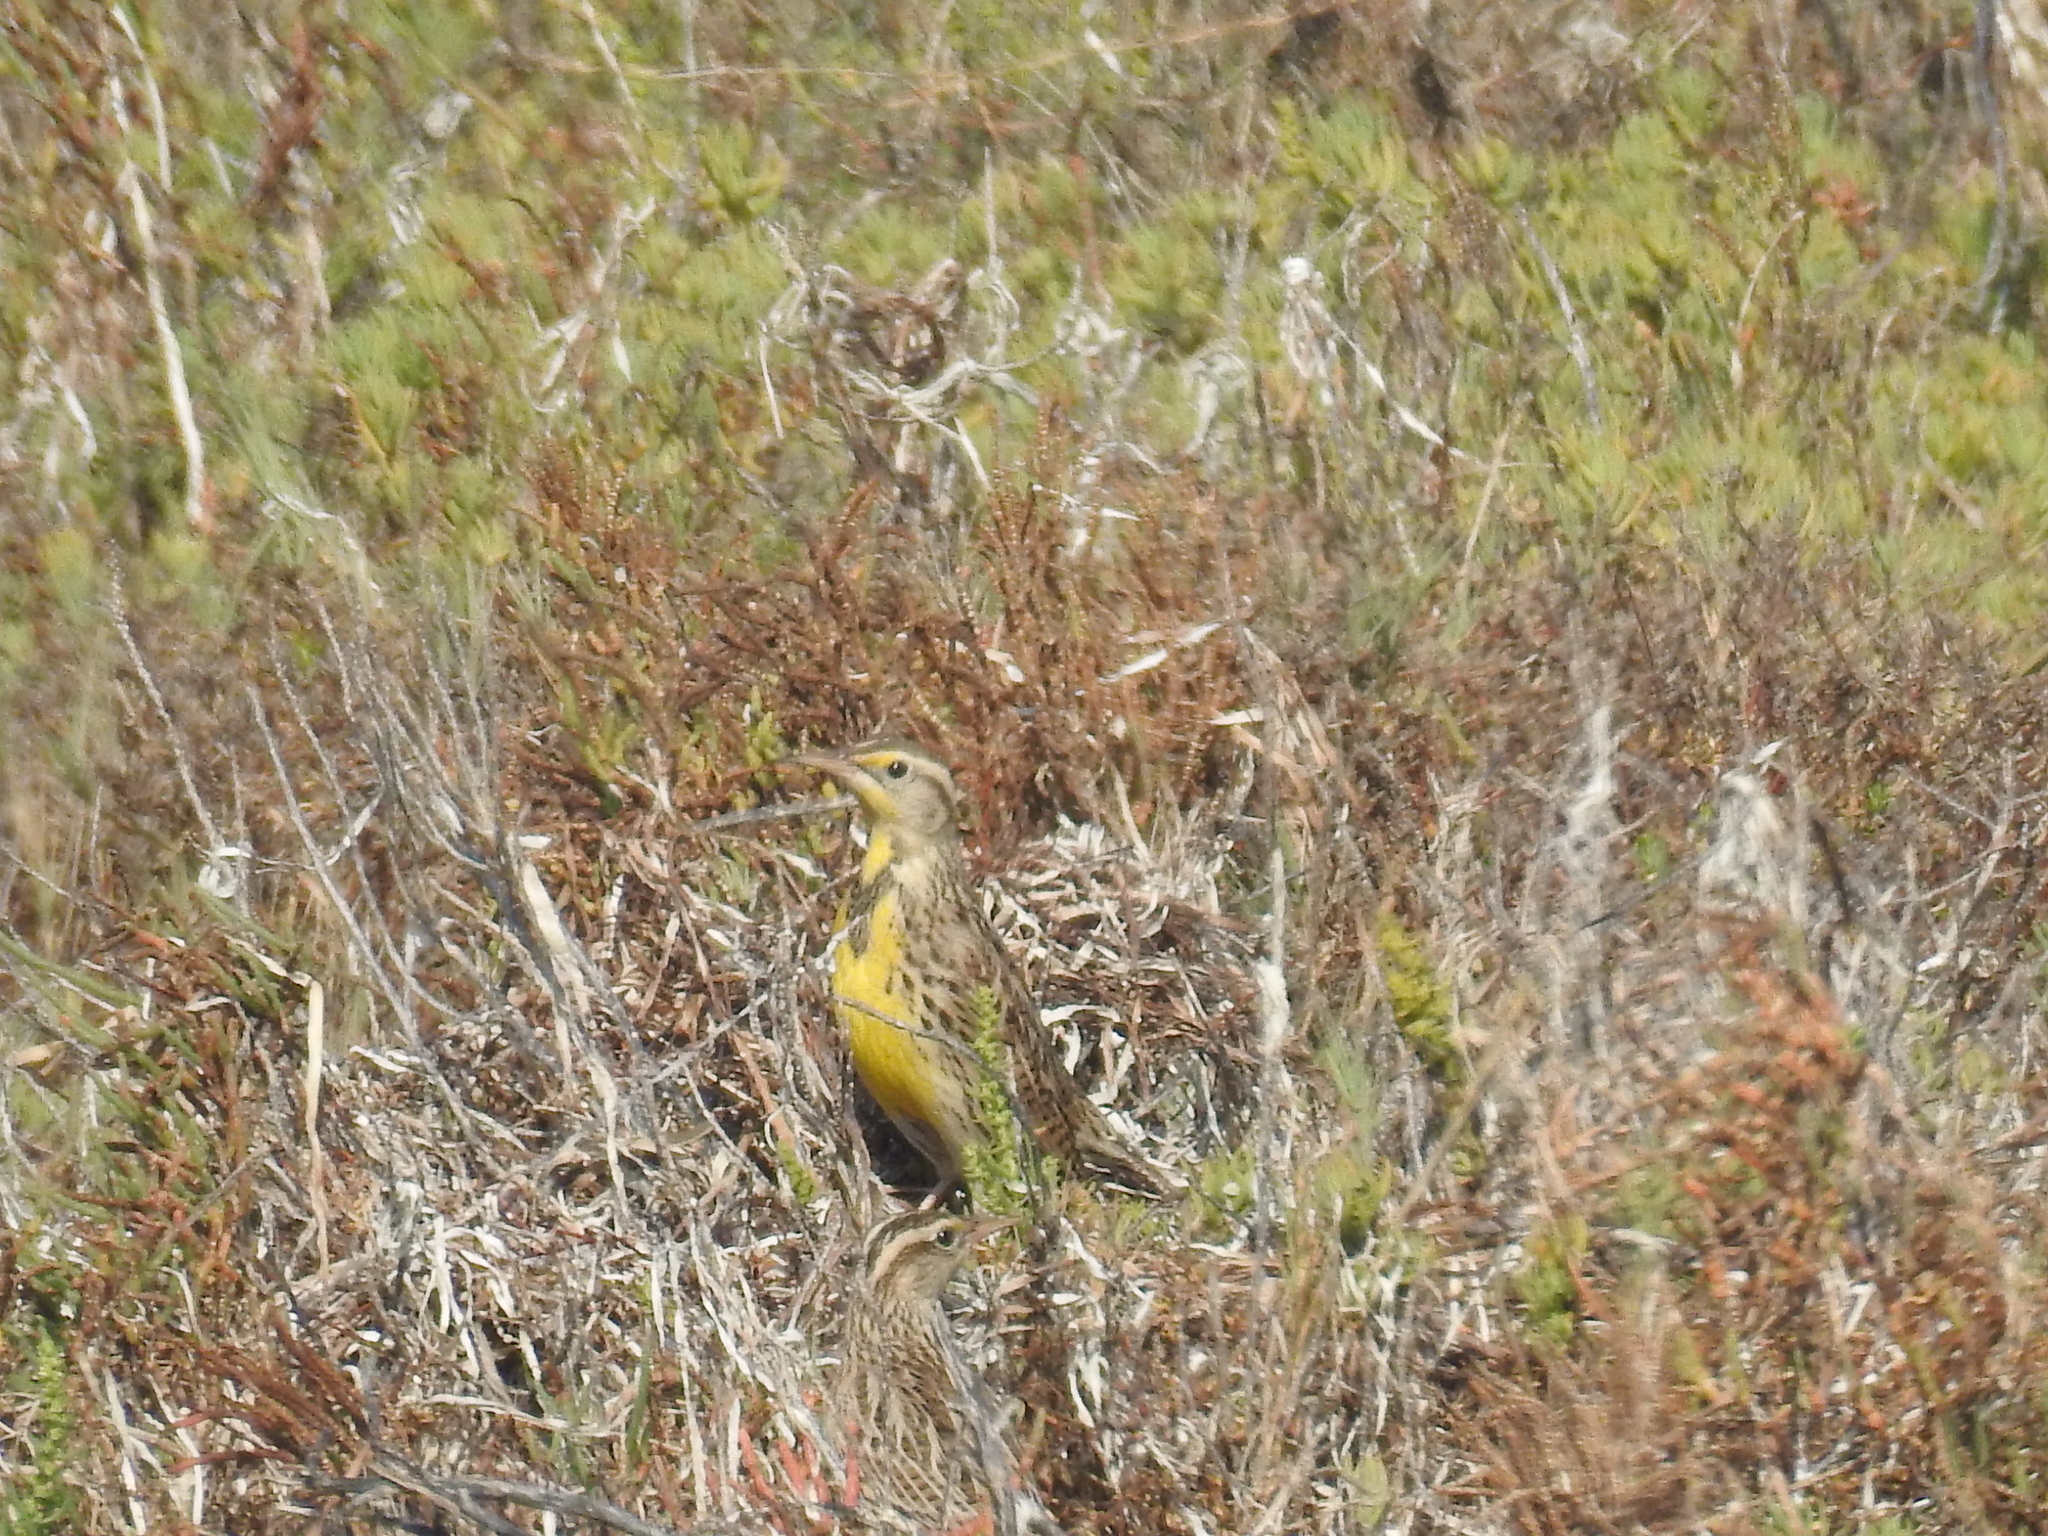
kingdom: Animalia
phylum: Chordata
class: Aves
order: Passeriformes
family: Icteridae
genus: Sturnella
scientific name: Sturnella neglecta
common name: Western meadowlark
